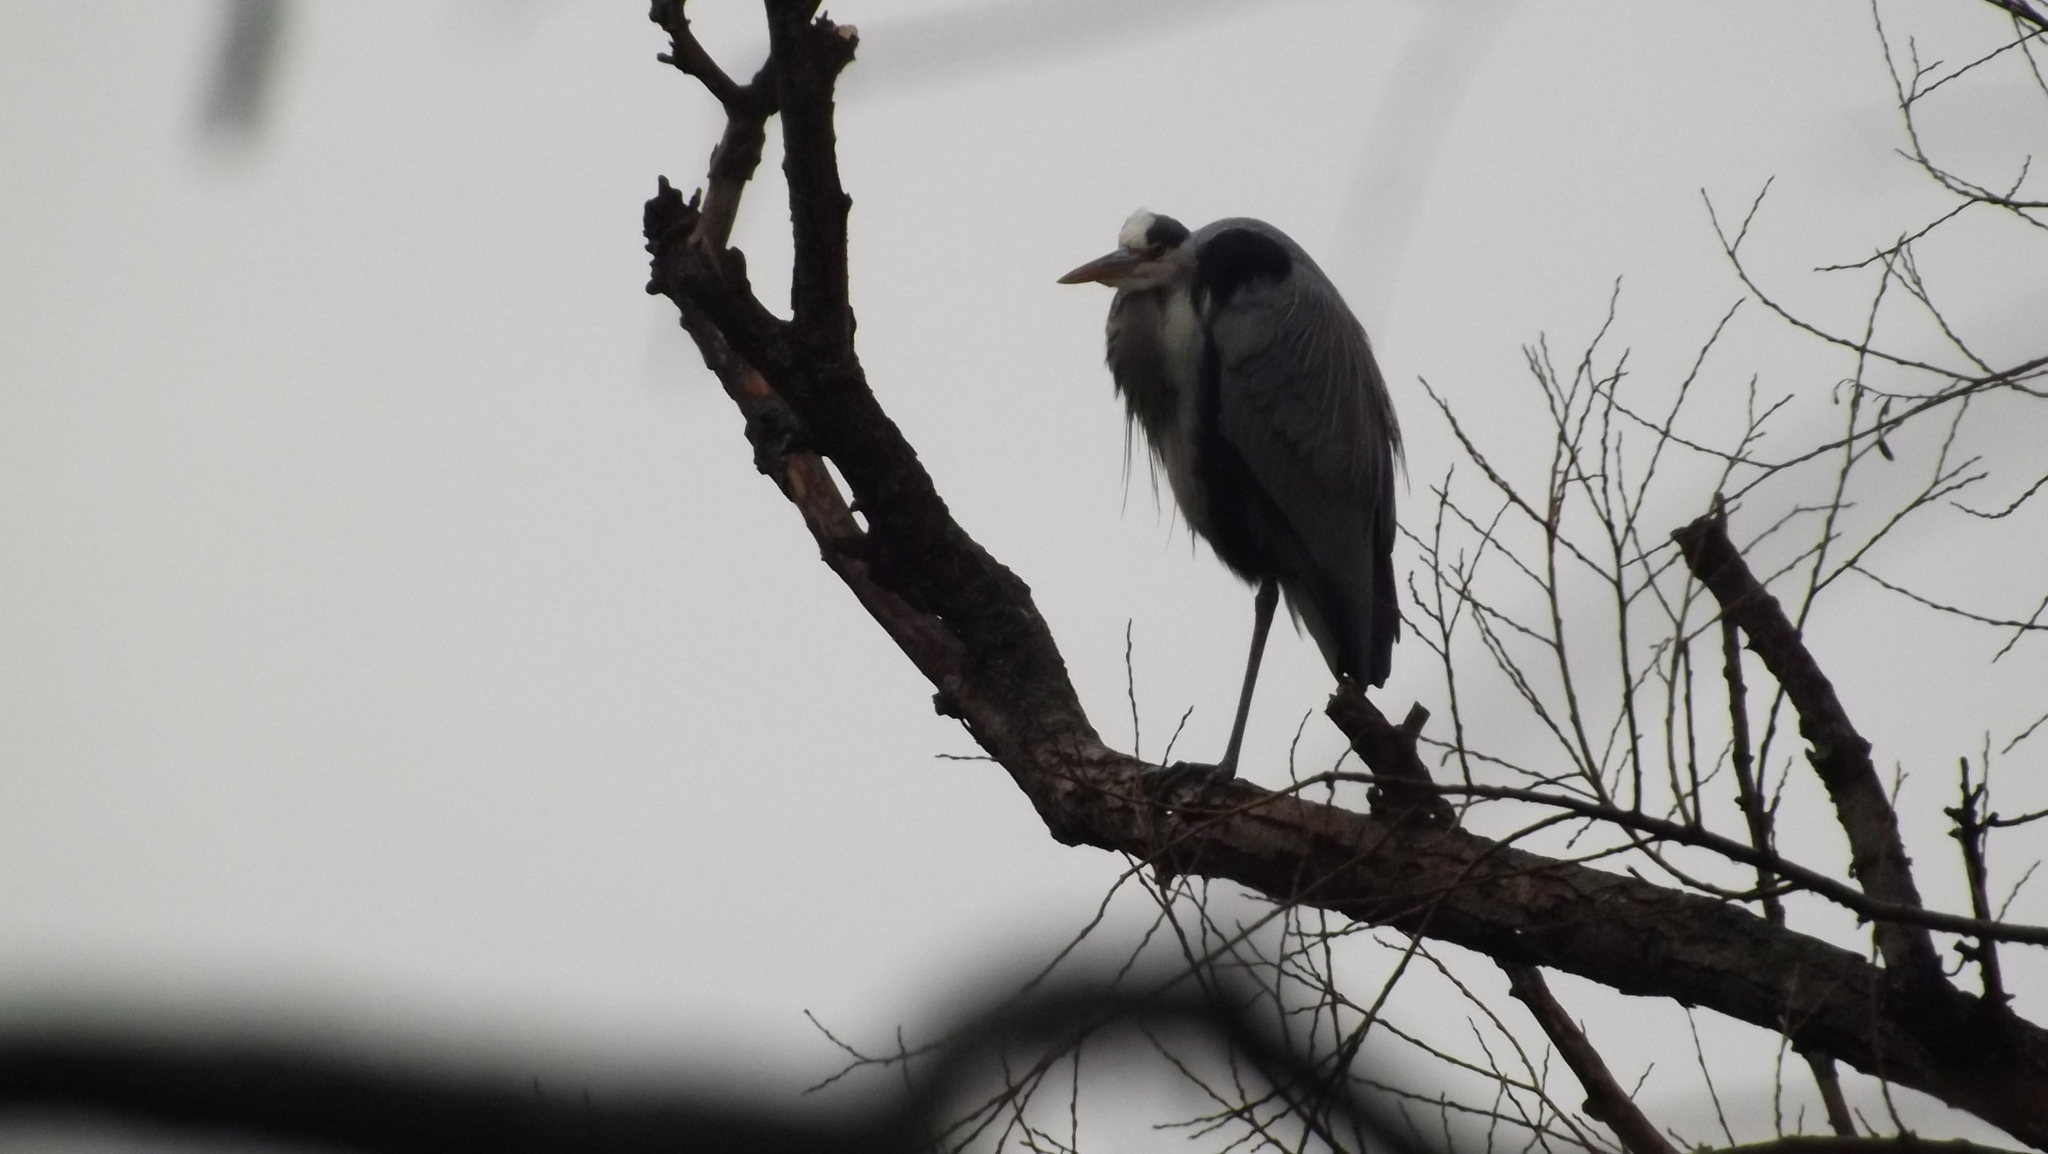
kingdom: Animalia
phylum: Chordata
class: Aves
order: Pelecaniformes
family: Ardeidae
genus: Ardea
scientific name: Ardea cinerea
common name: Grey heron
